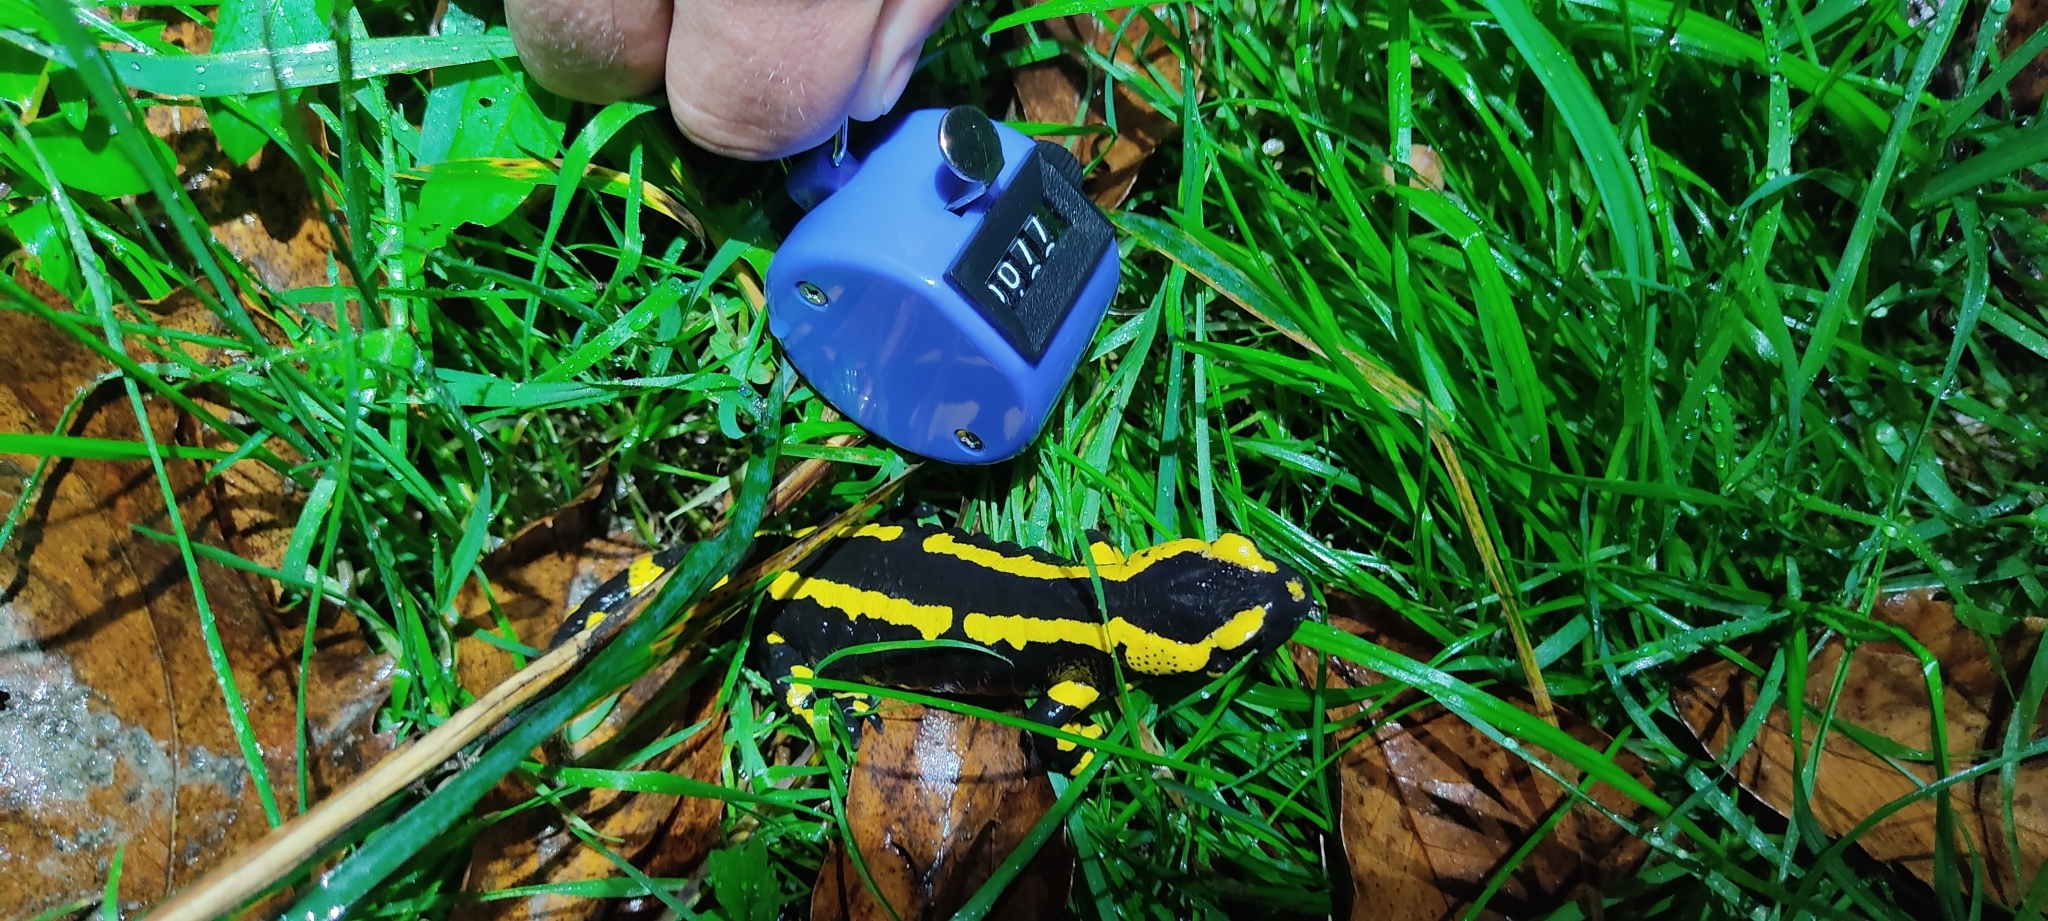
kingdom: Animalia
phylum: Chordata
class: Amphibia
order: Caudata
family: Salamandridae
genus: Salamandra
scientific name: Salamandra salamandra
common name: Fire salamander
